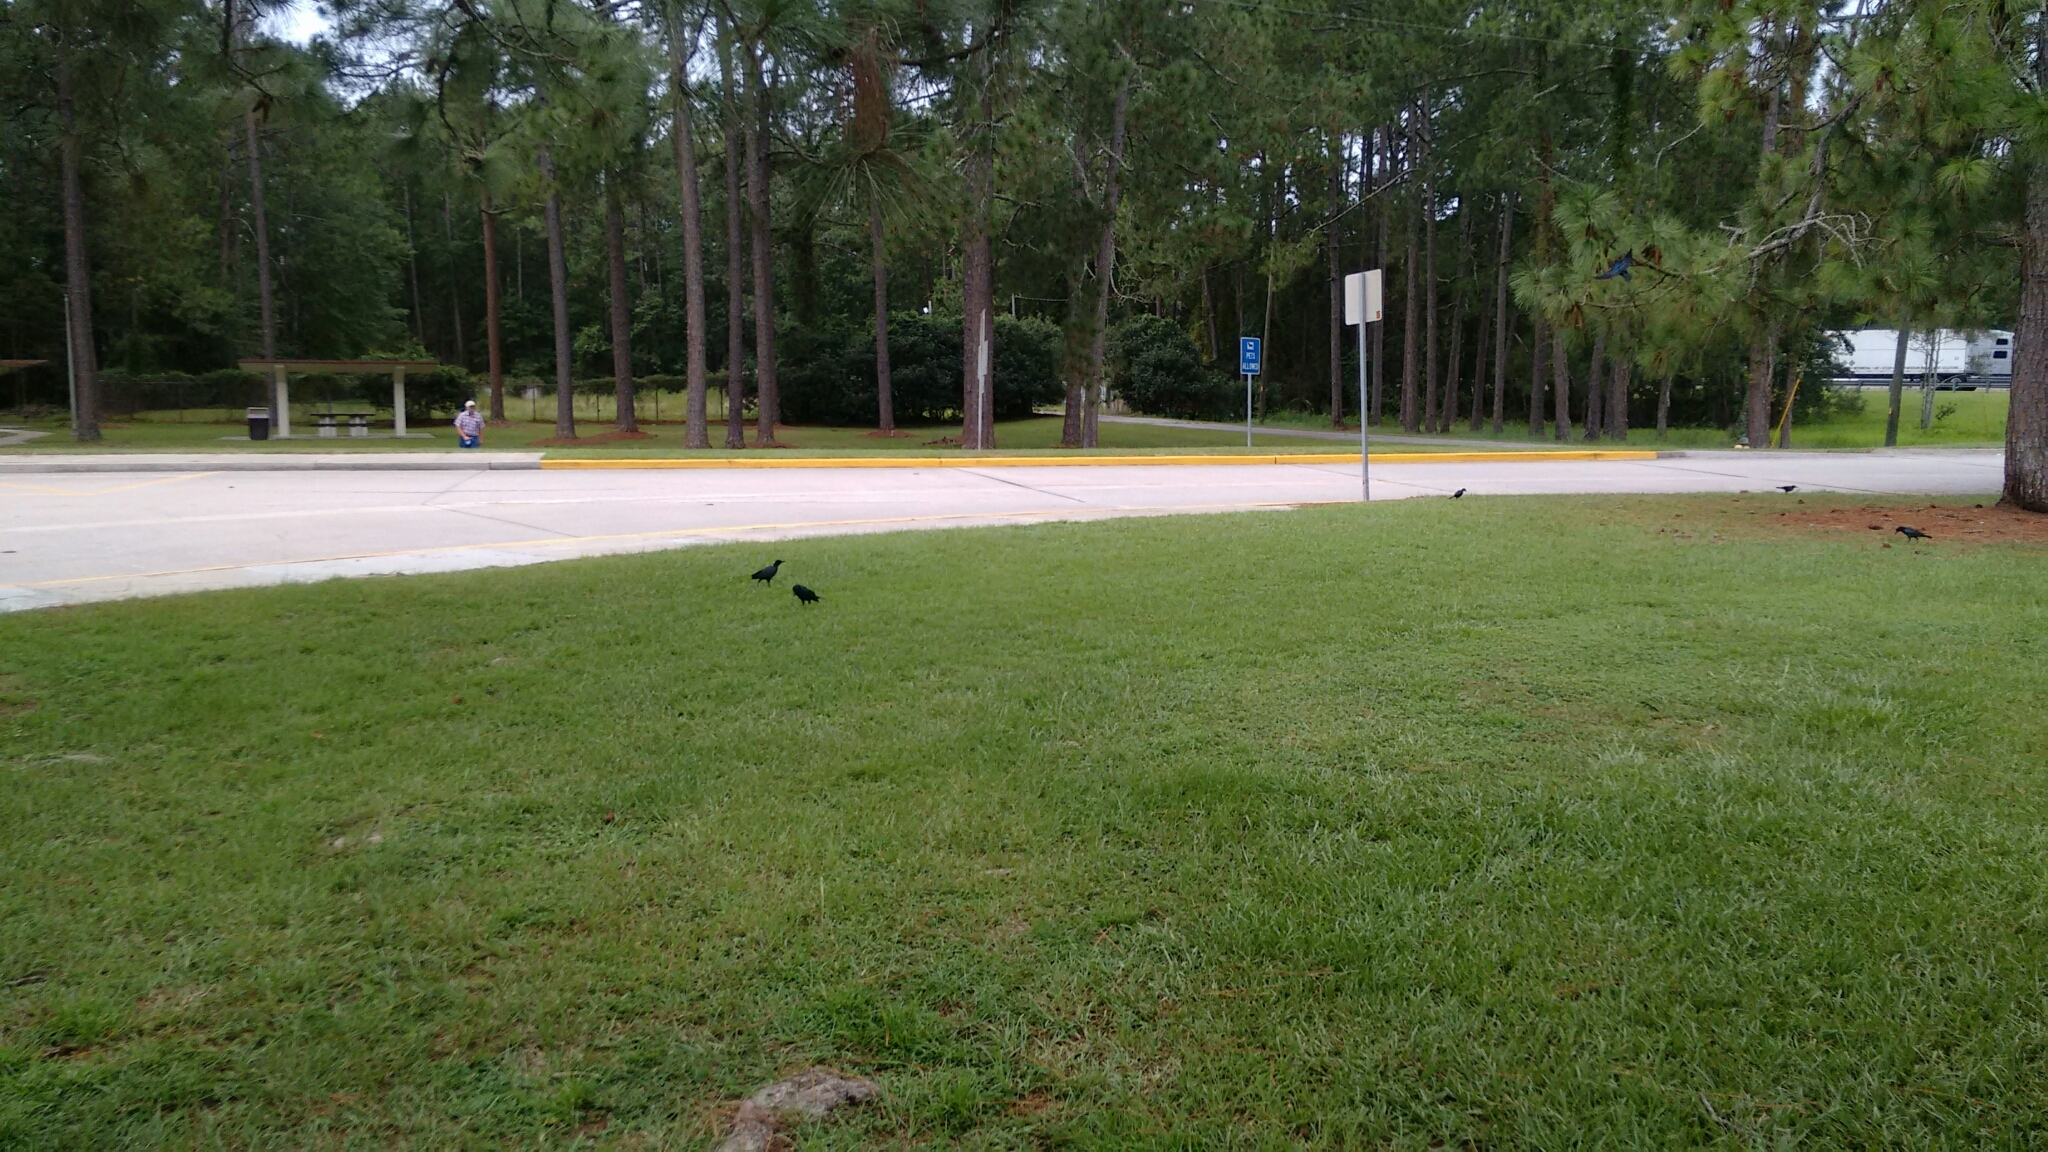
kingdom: Animalia
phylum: Chordata
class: Aves
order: Passeriformes
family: Icteridae
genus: Quiscalus
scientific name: Quiscalus major
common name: Boat-tailed grackle
